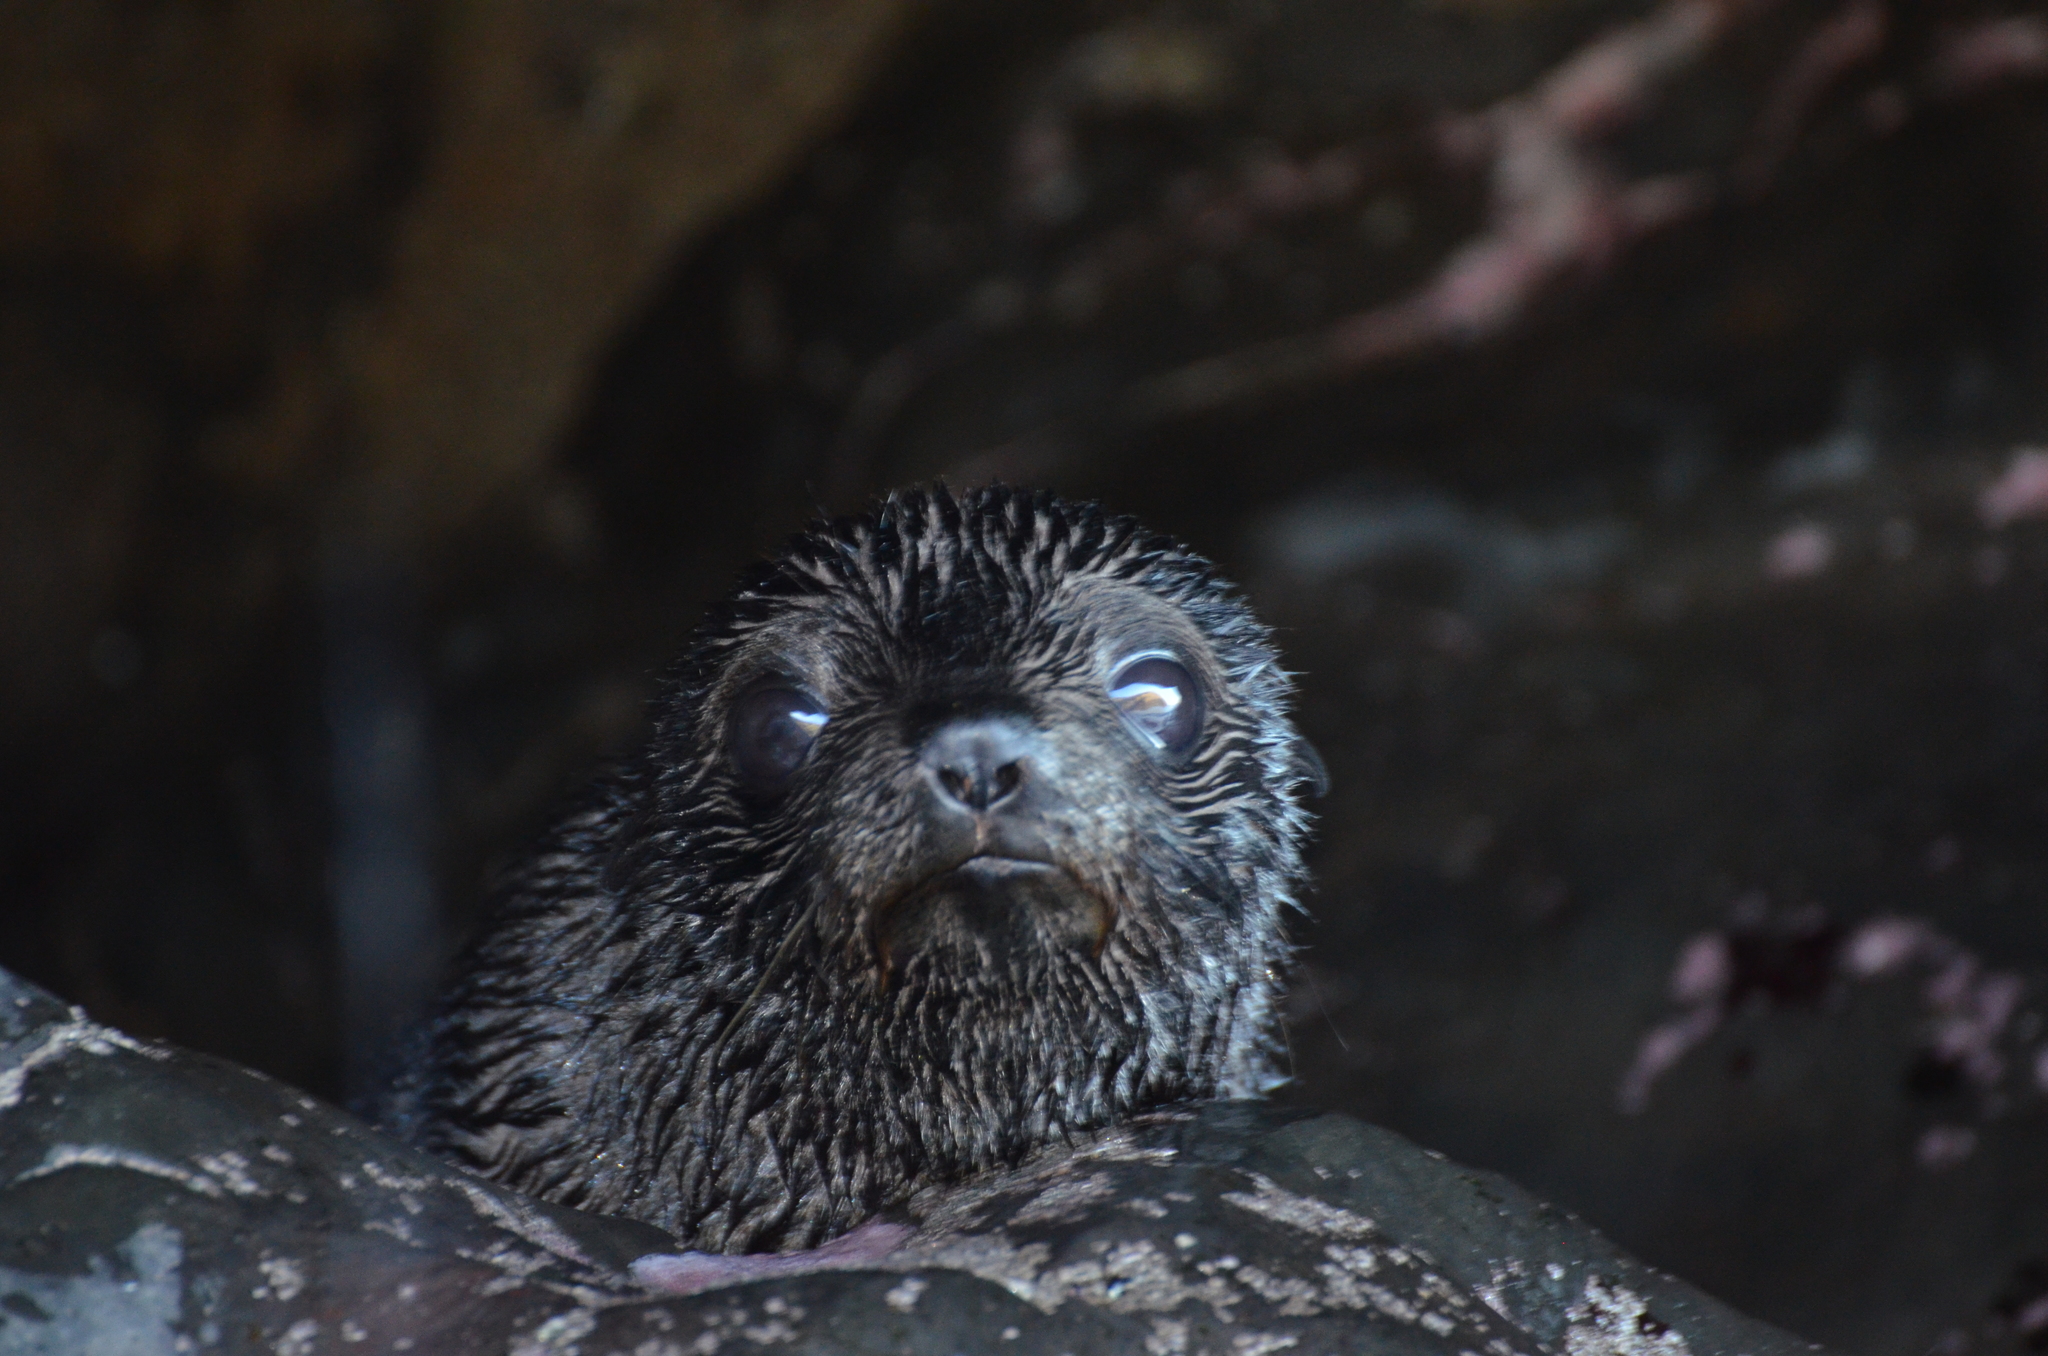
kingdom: Animalia
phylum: Chordata
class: Mammalia
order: Carnivora
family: Otariidae
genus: Arctocephalus
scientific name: Arctocephalus forsteri
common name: New zealand fur seal
